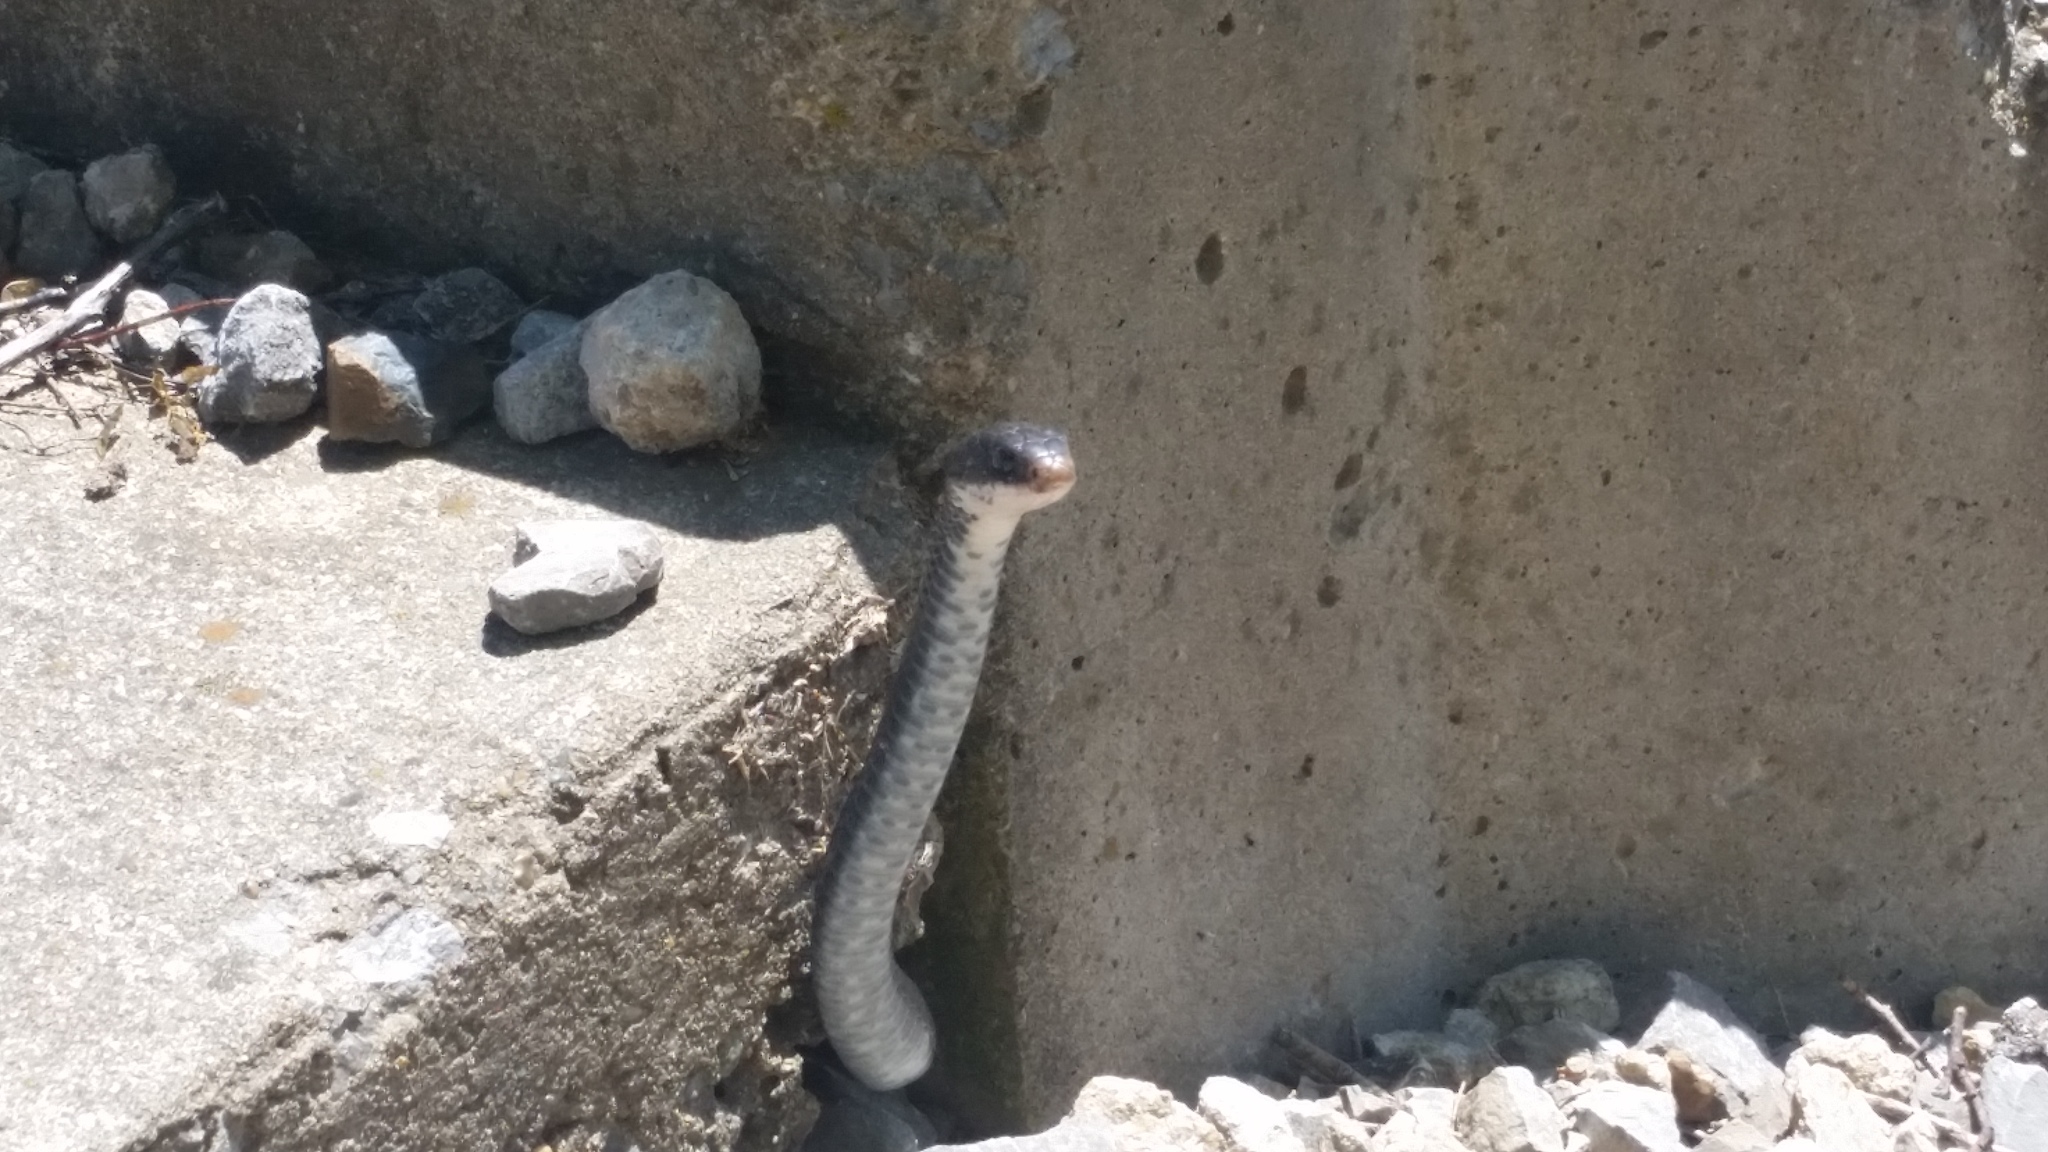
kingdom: Animalia
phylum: Chordata
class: Squamata
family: Colubridae
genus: Coluber
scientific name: Coluber constrictor
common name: Eastern racer
